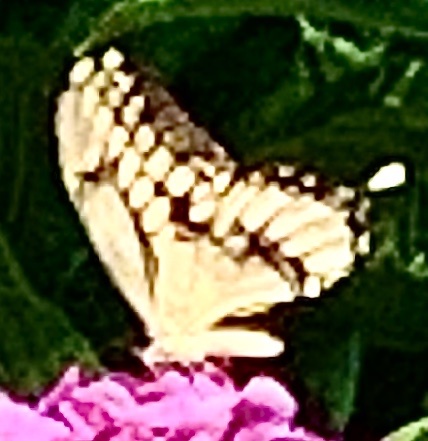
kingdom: Animalia
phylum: Arthropoda
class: Insecta
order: Lepidoptera
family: Papilionidae
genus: Papilio
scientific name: Papilio cresphontes
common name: Giant swallowtail
